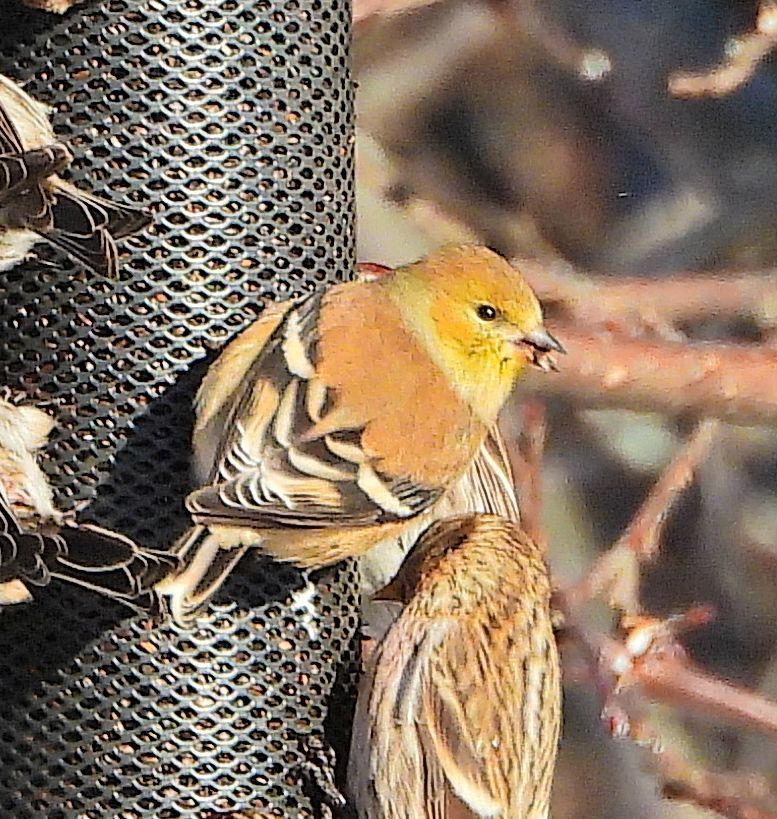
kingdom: Animalia
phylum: Chordata
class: Aves
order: Passeriformes
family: Fringillidae
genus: Spinus
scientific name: Spinus tristis
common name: American goldfinch
